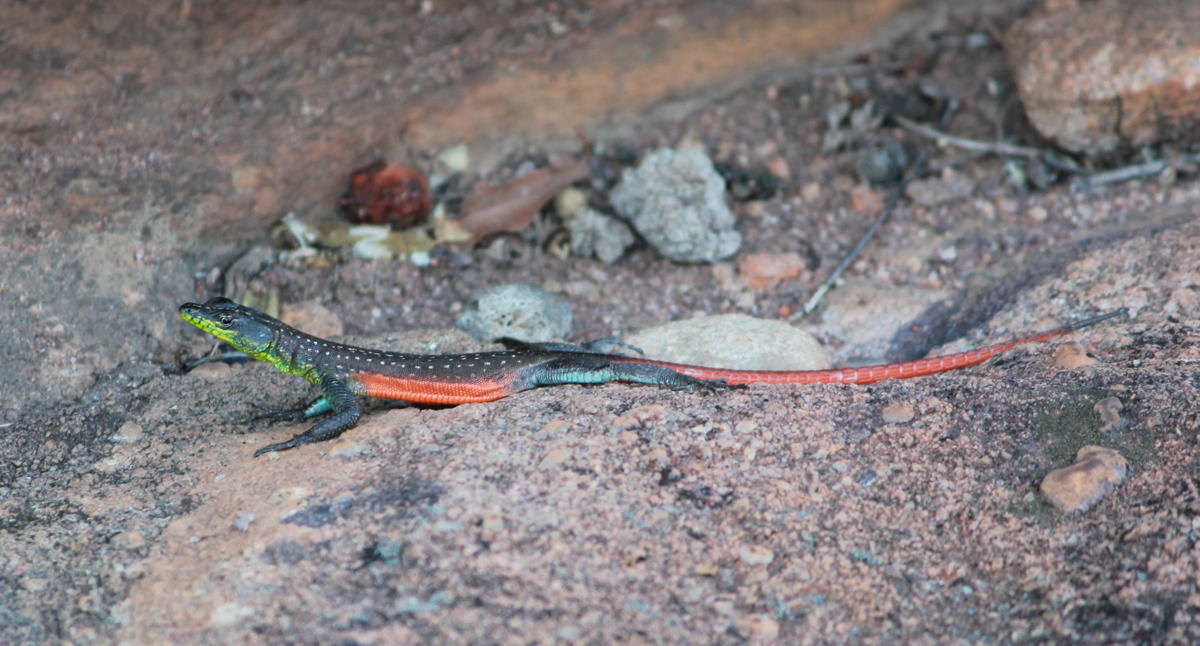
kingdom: Animalia
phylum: Chordata
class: Squamata
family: Cordylidae
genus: Platysaurus
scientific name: Platysaurus minor
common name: Waterberg flat lizard
